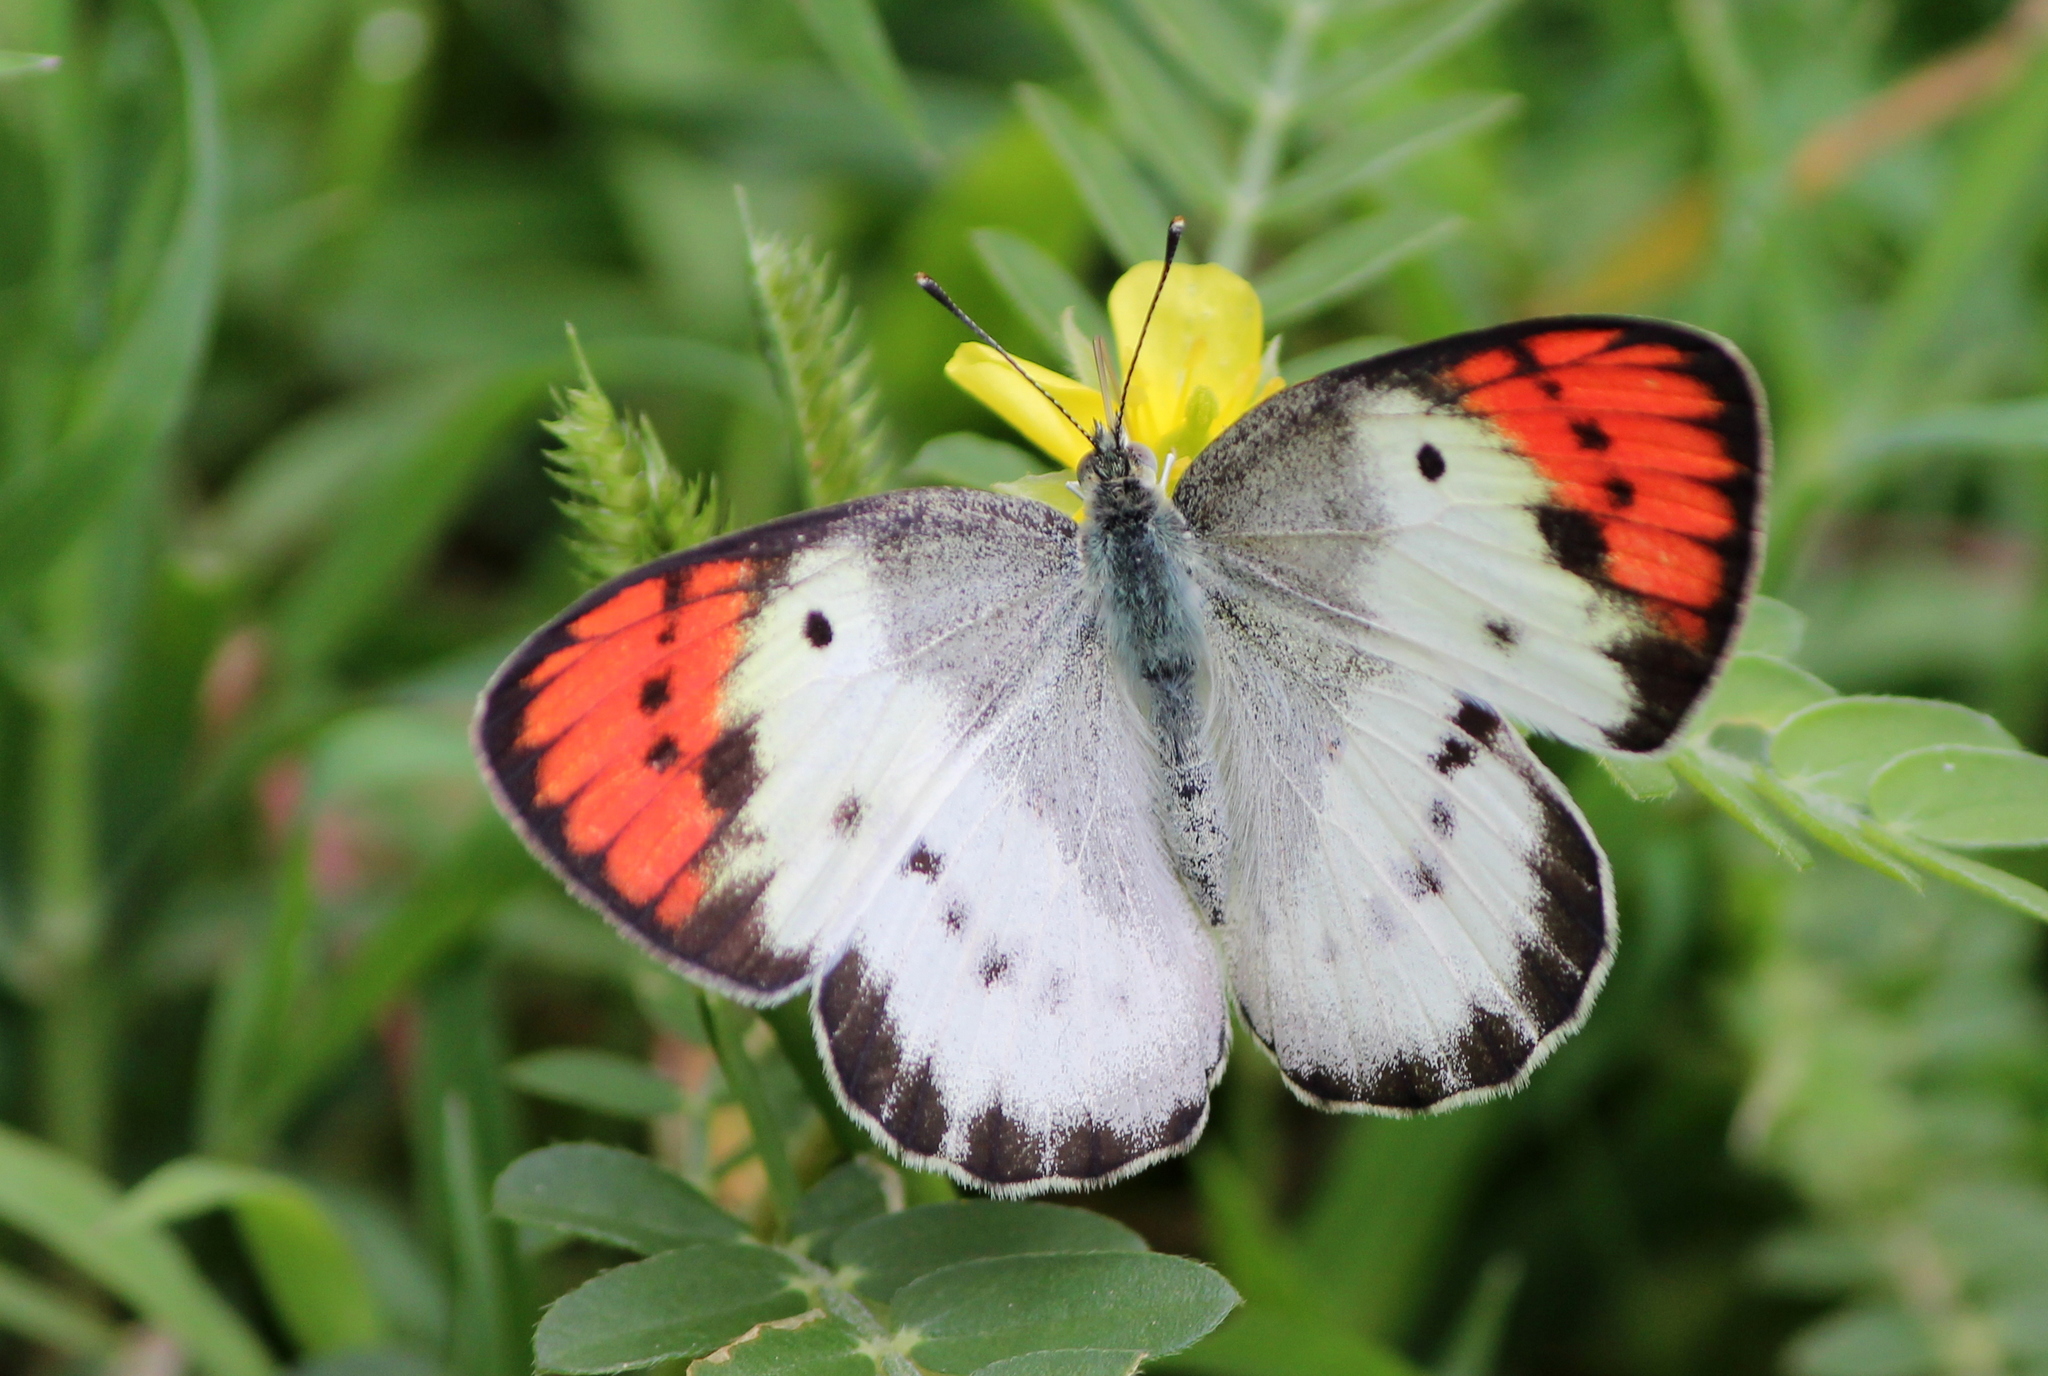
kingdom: Animalia
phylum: Arthropoda
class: Insecta
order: Lepidoptera
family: Pieridae
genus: Colotis
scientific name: Colotis danae
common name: Crimson tip
